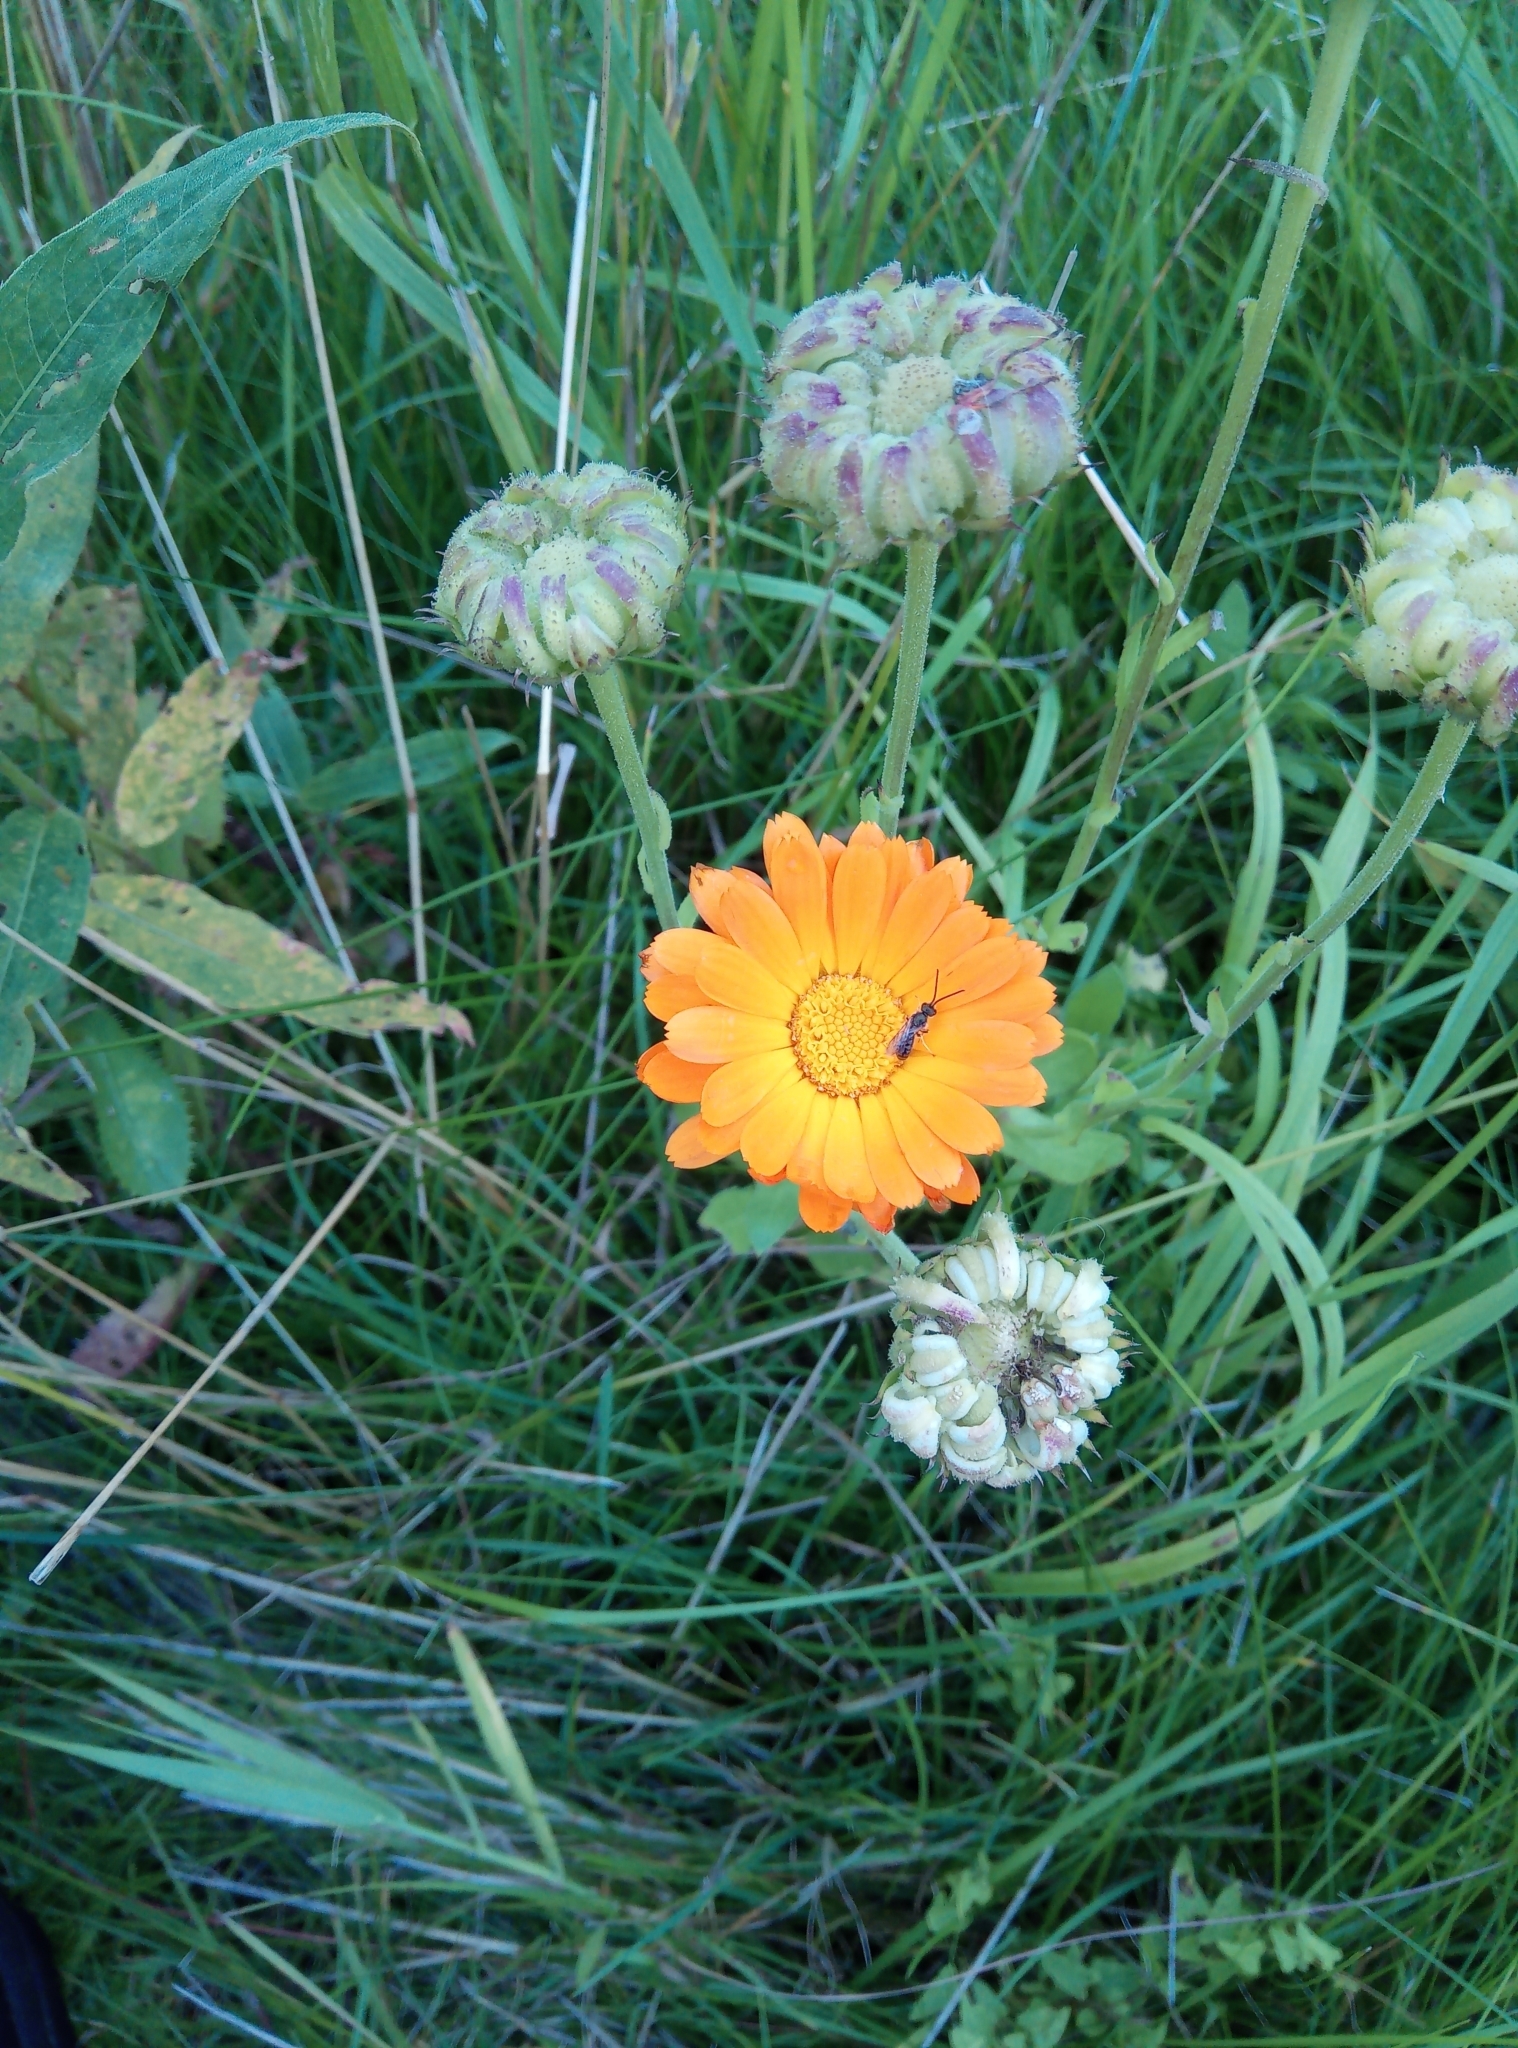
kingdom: Plantae
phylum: Tracheophyta
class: Magnoliopsida
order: Asterales
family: Asteraceae
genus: Calendula
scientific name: Calendula officinalis
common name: Pot marigold
